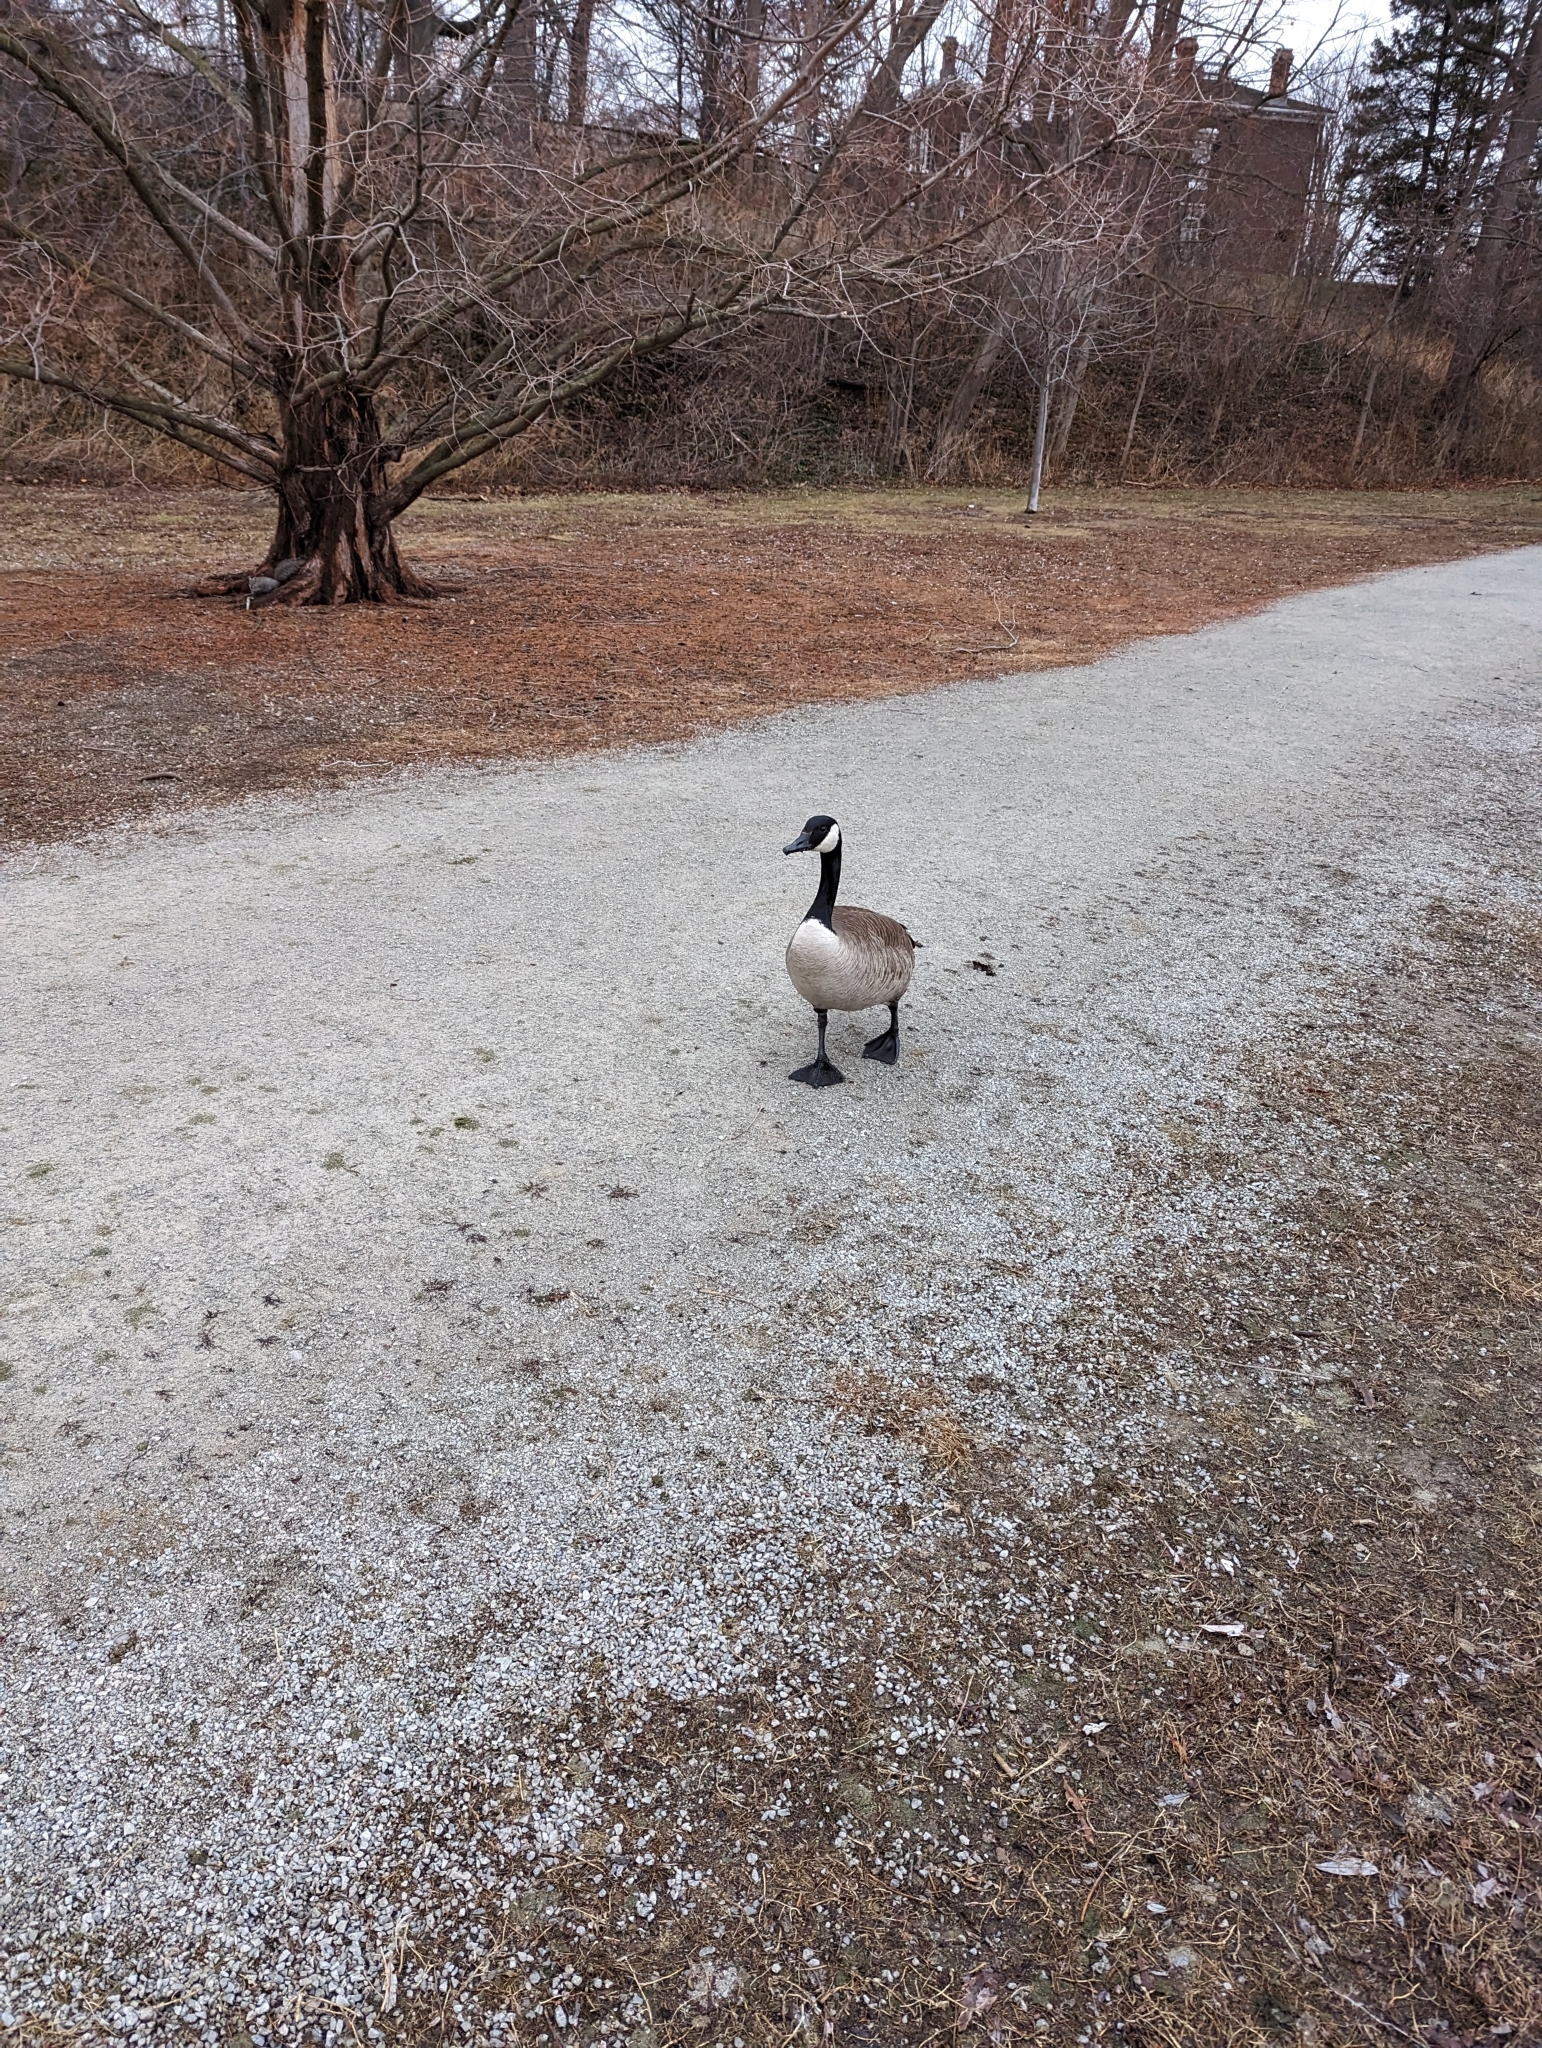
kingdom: Animalia
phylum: Chordata
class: Aves
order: Anseriformes
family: Anatidae
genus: Branta
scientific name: Branta canadensis
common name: Canada goose
